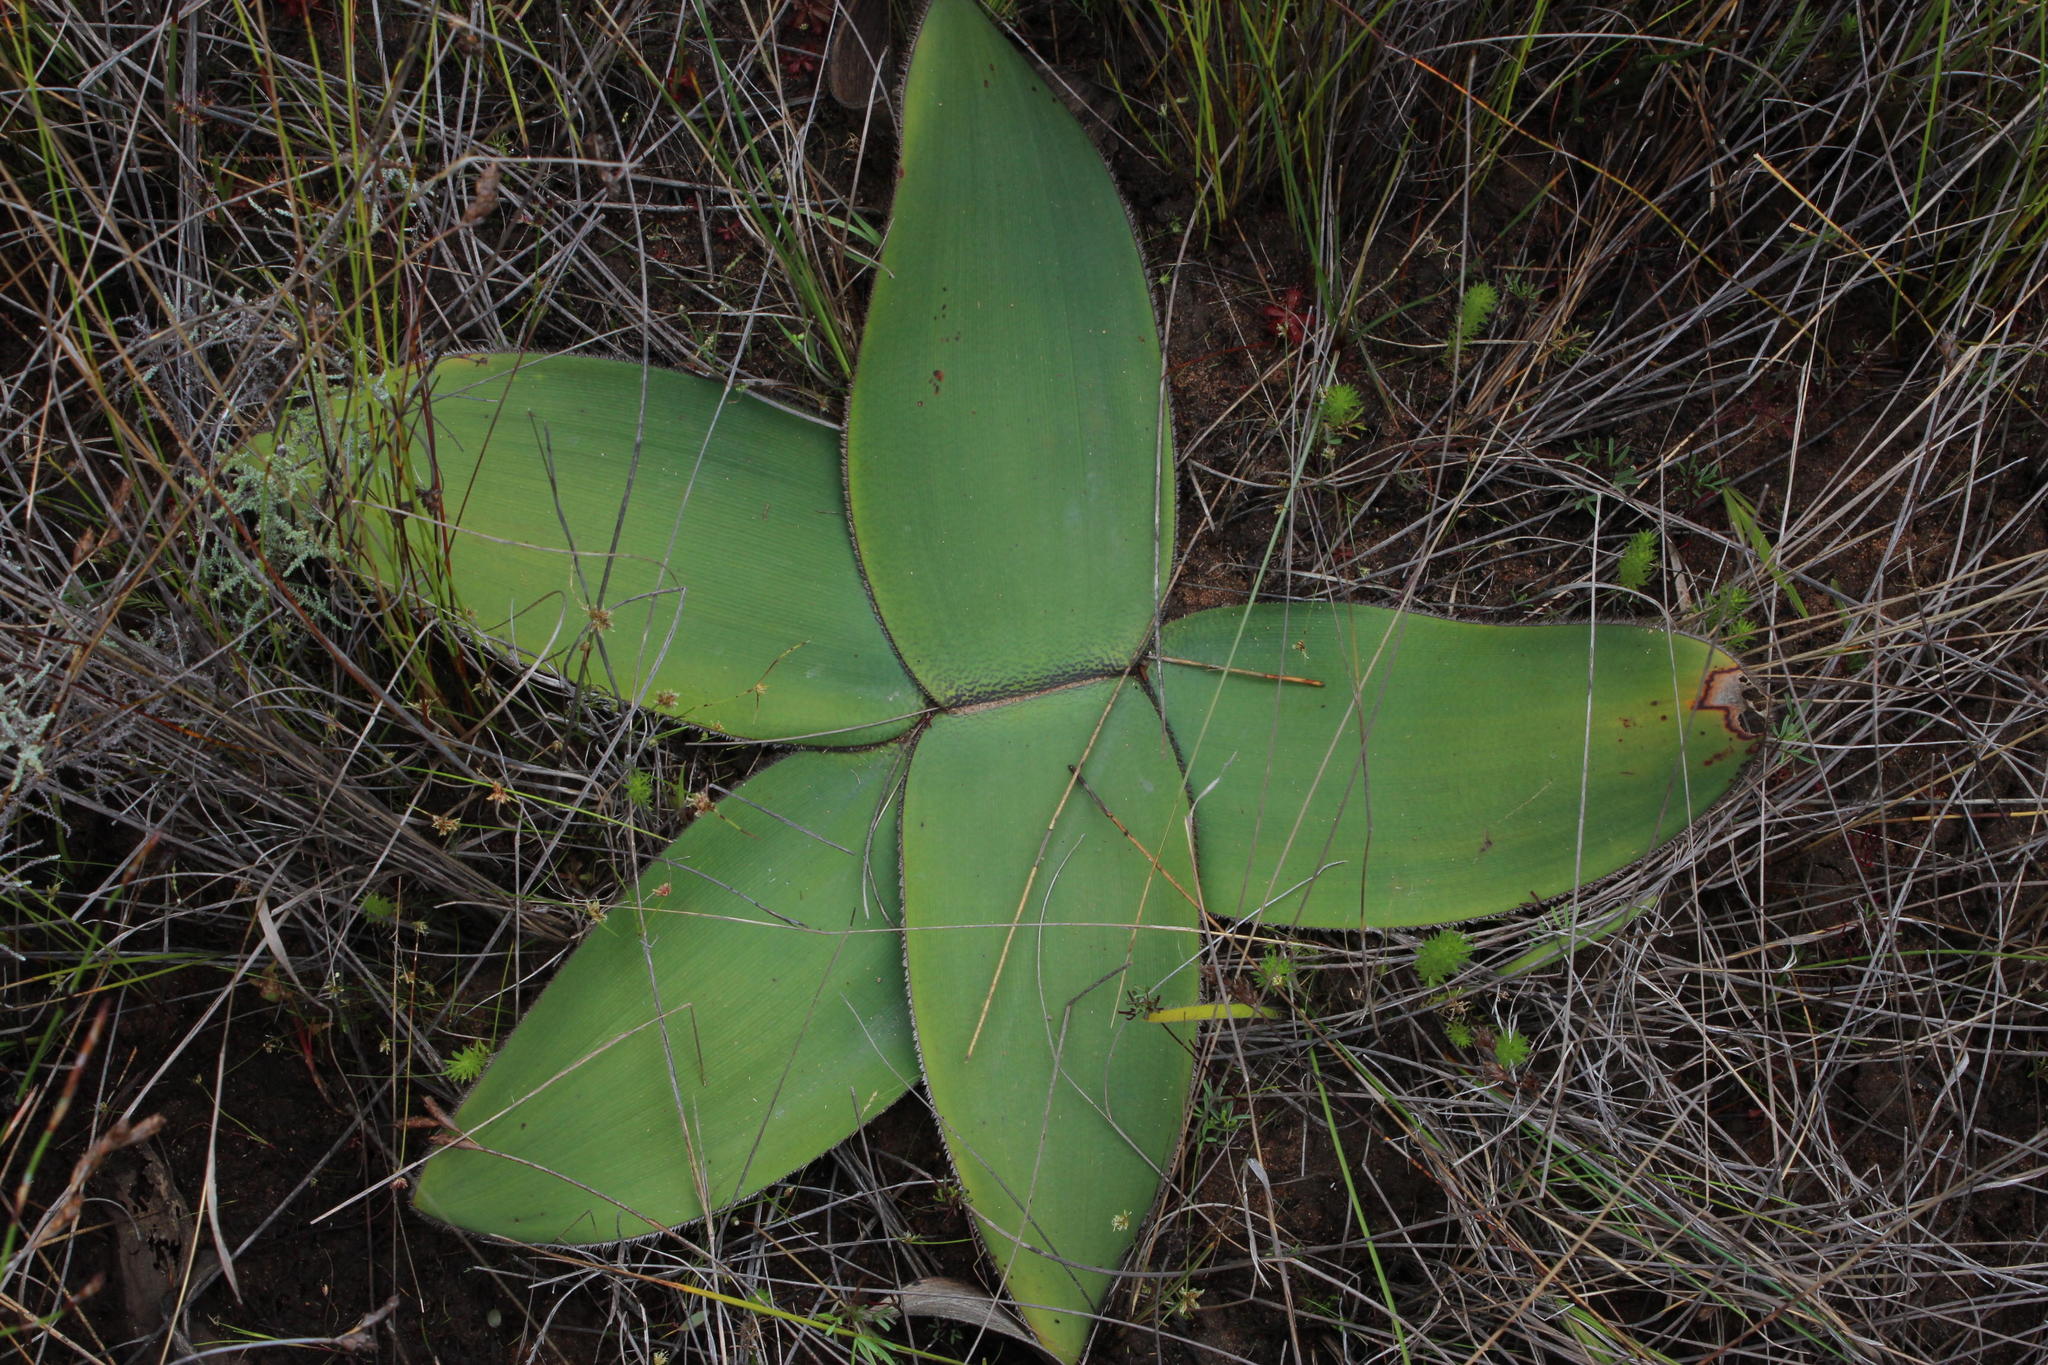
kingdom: Plantae
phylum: Tracheophyta
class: Liliopsida
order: Asparagales
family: Amaryllidaceae
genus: Crossyne
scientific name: Crossyne guttata
